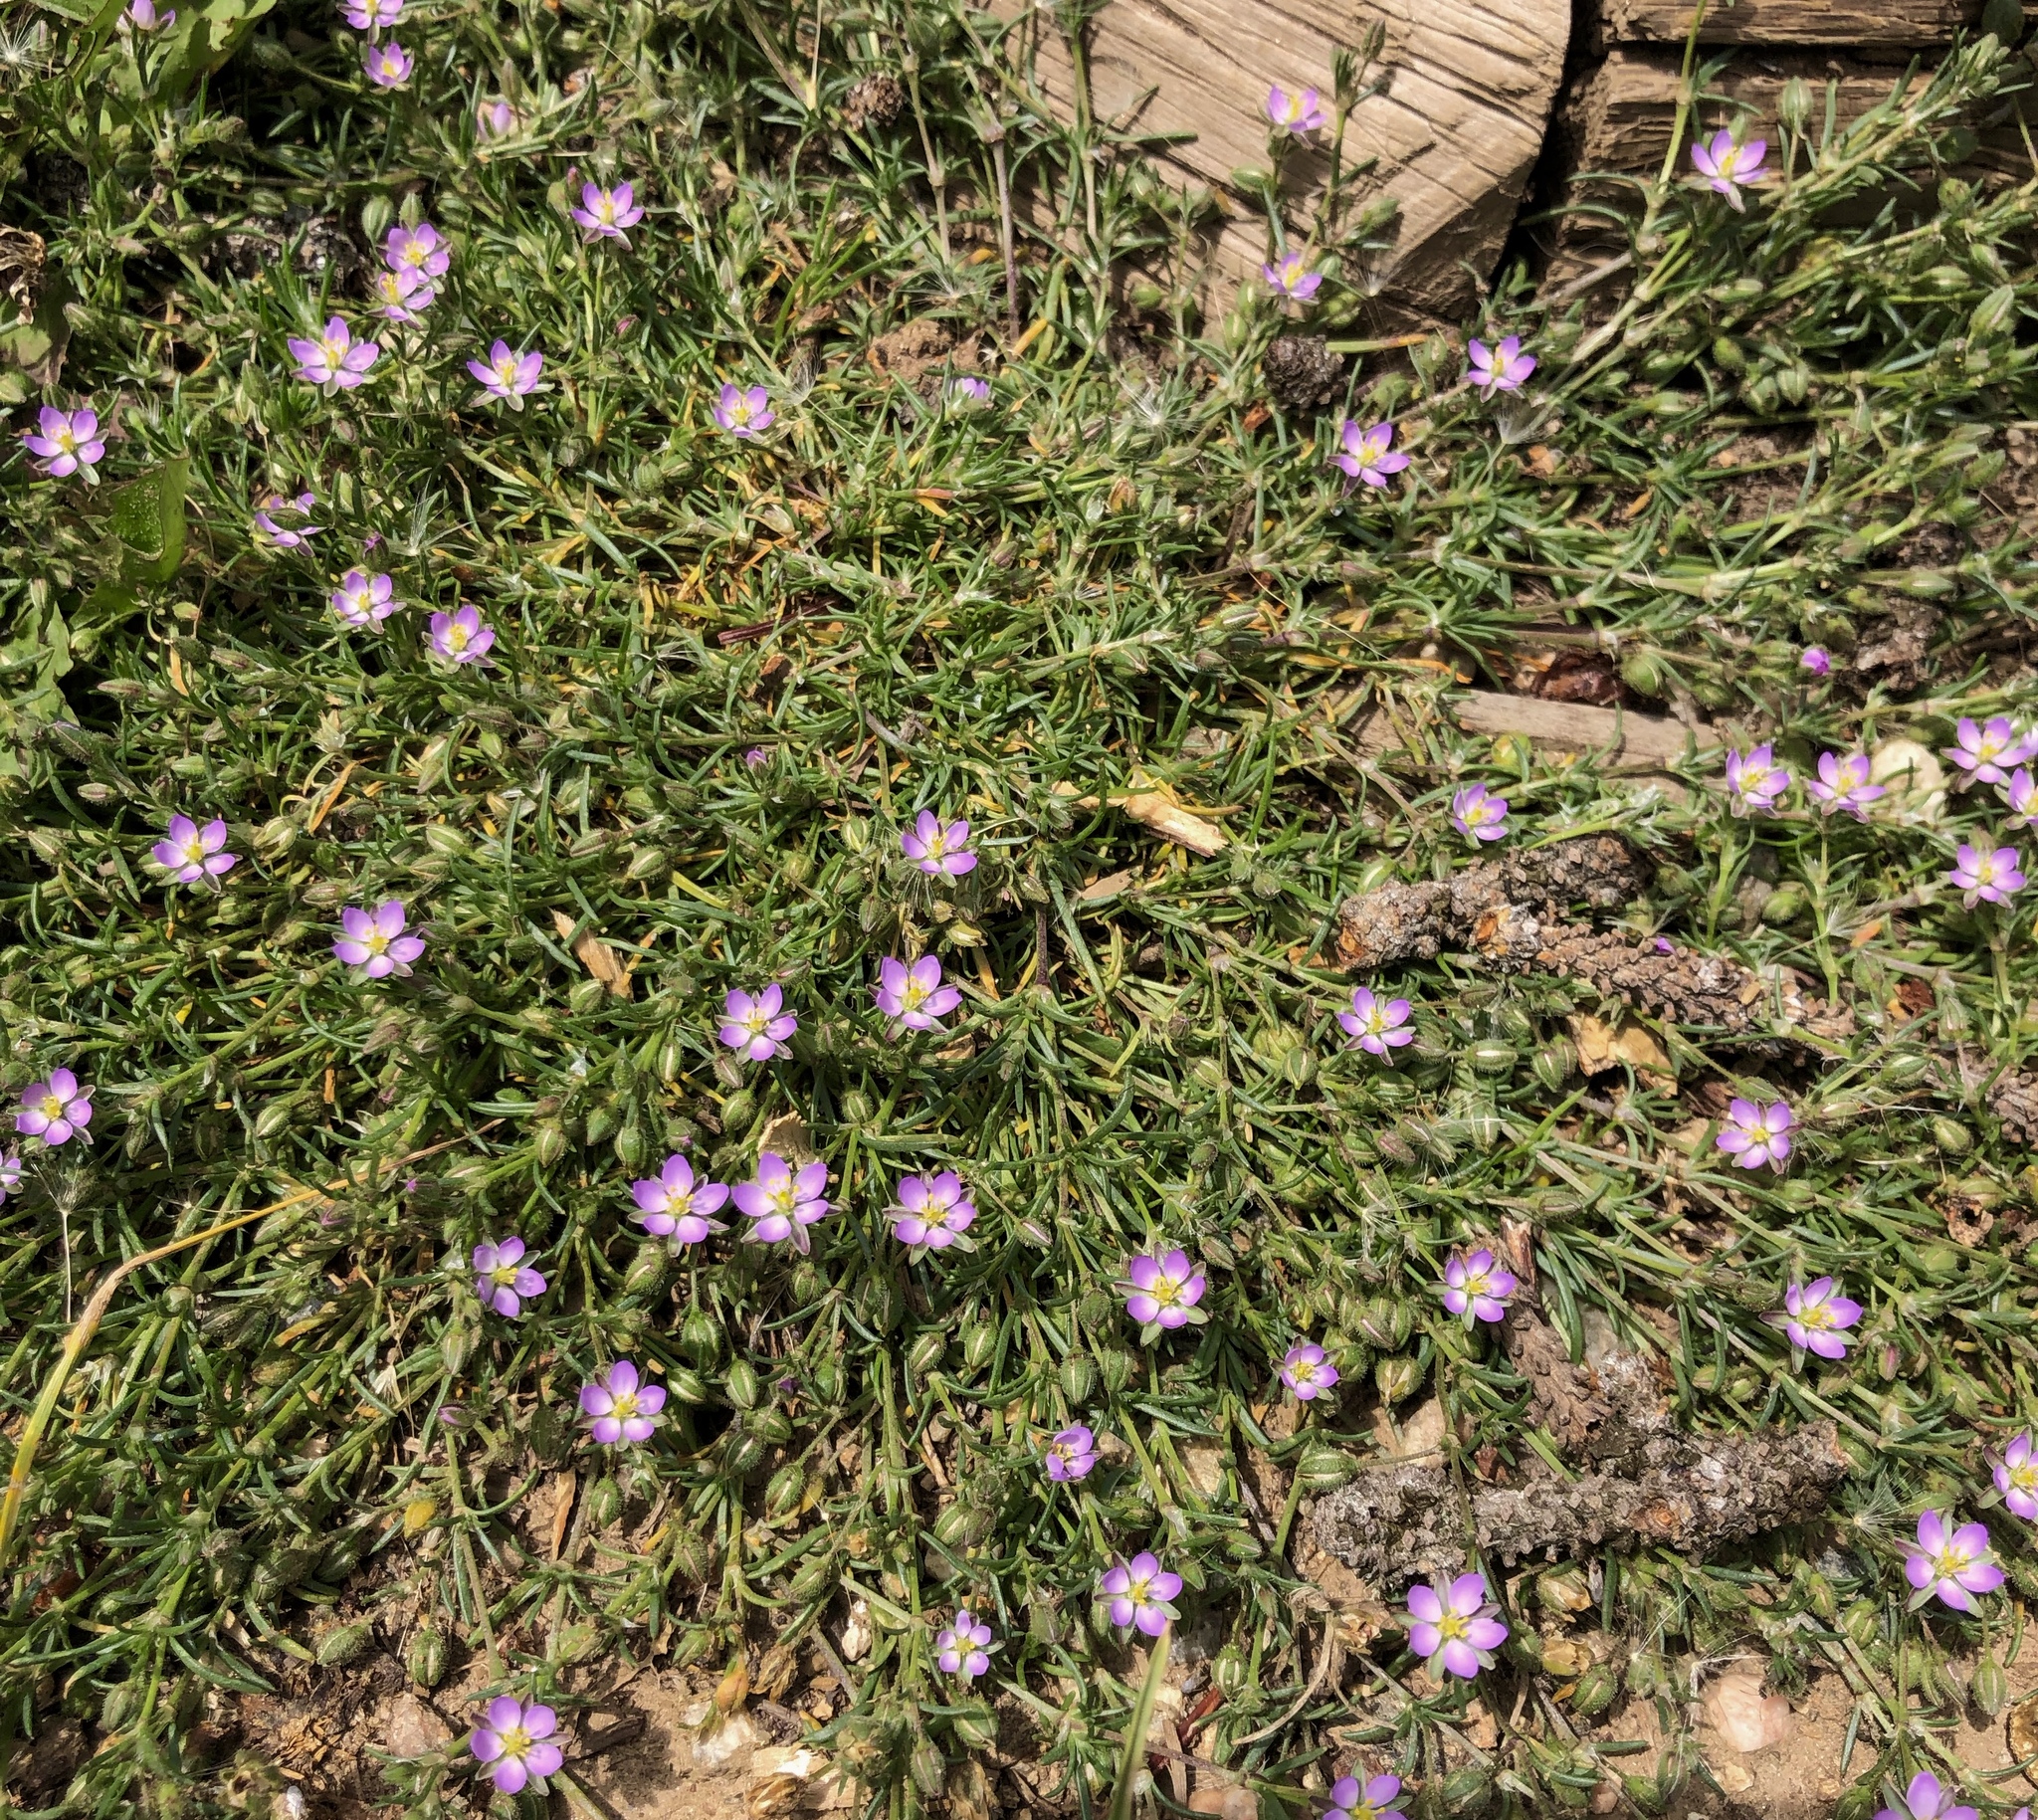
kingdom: Plantae
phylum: Tracheophyta
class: Magnoliopsida
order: Caryophyllales
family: Caryophyllaceae
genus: Spergularia
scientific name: Spergularia rubra
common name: Red sand-spurrey
